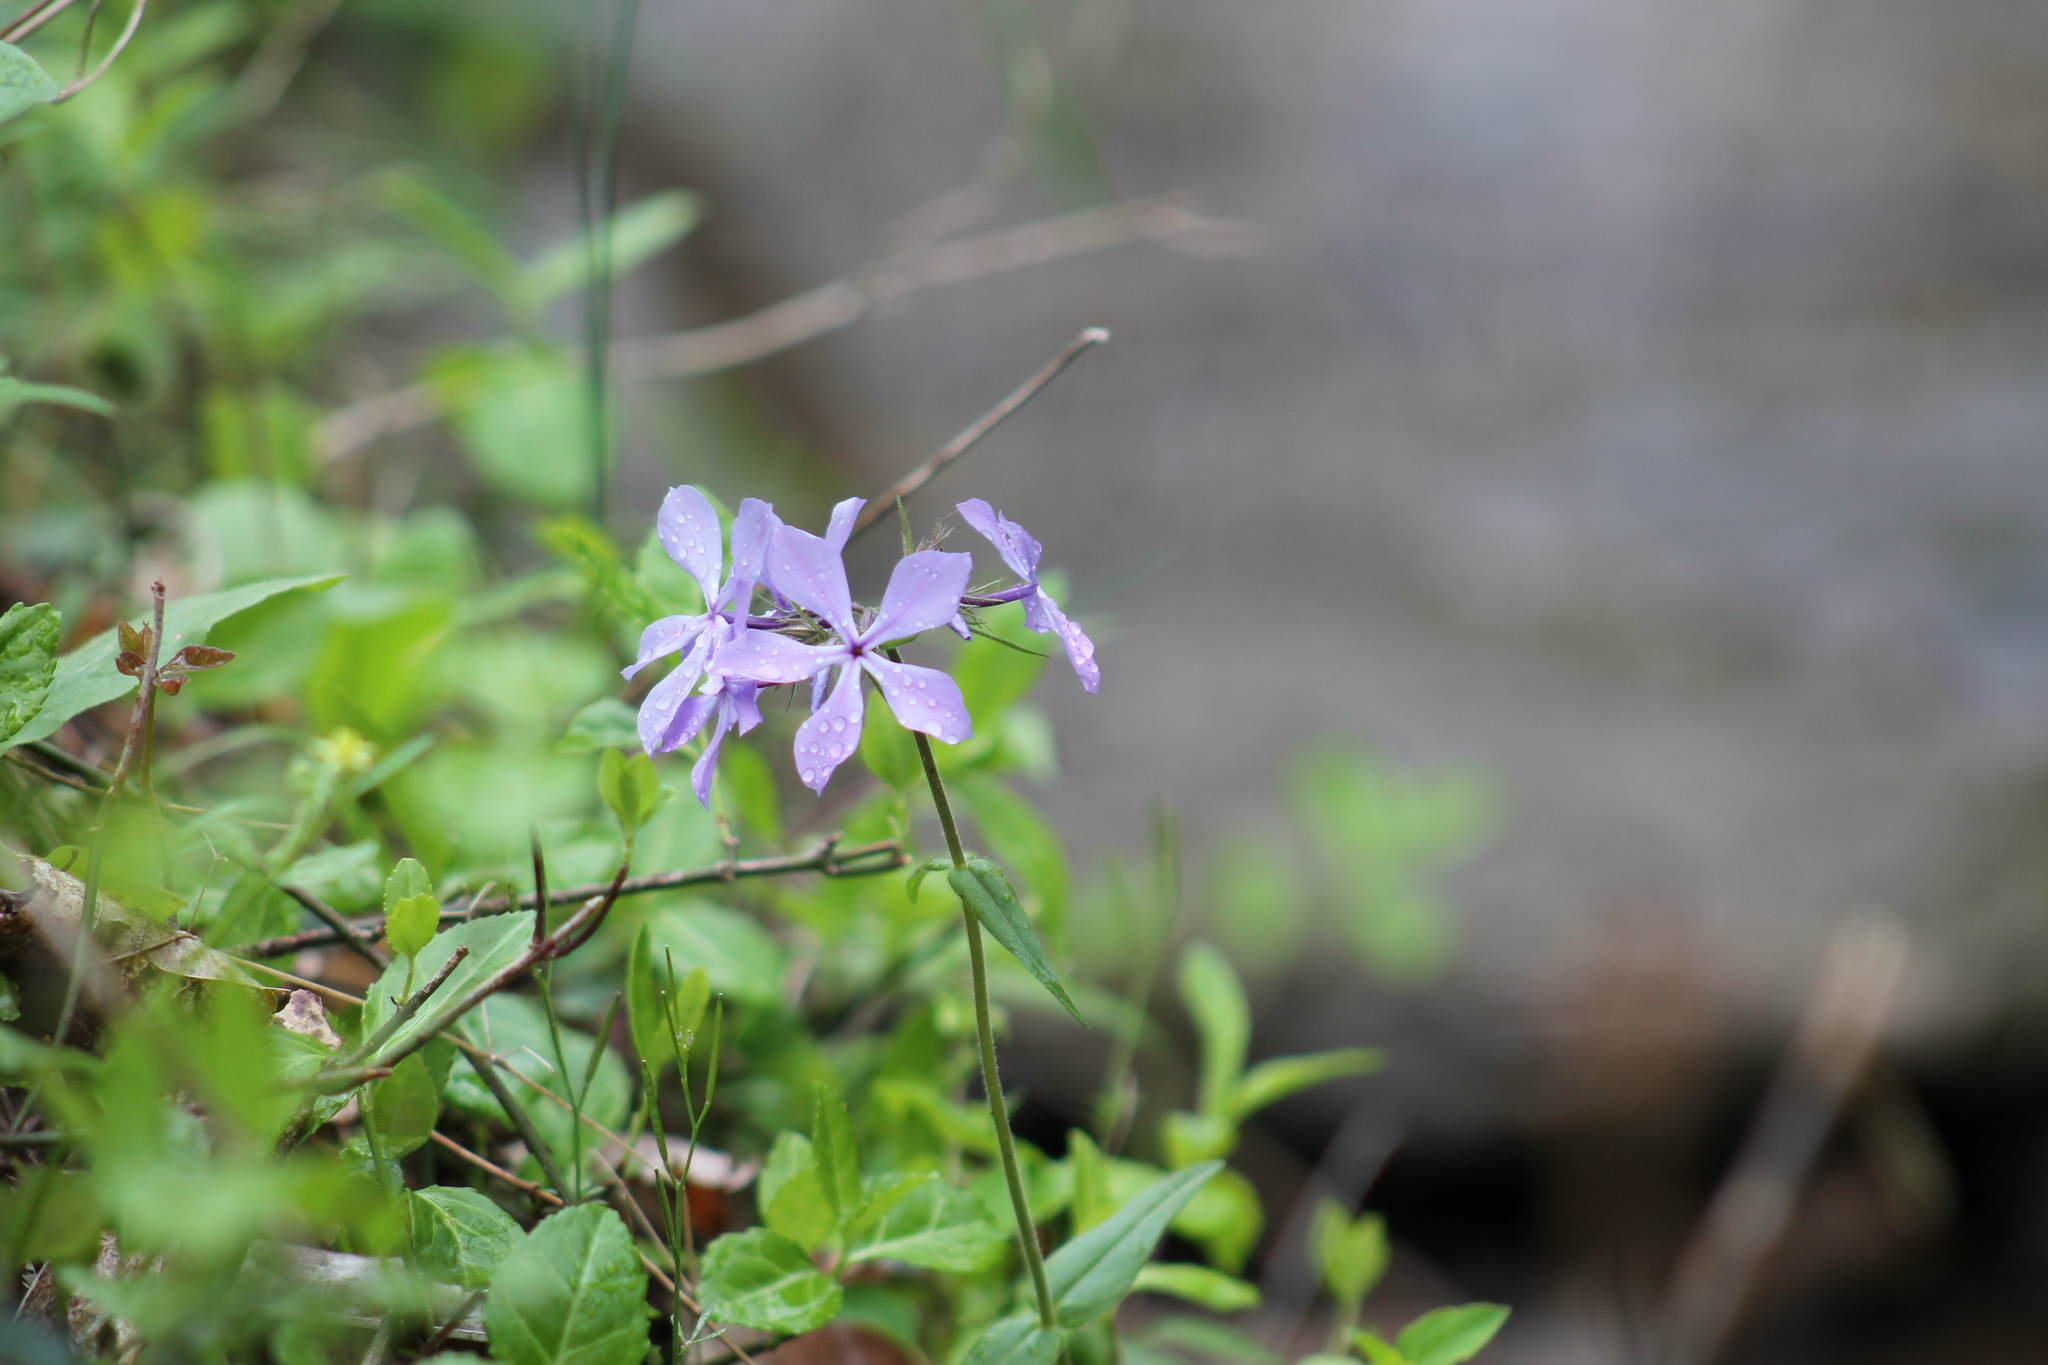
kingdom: Plantae
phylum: Tracheophyta
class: Magnoliopsida
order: Ericales
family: Polemoniaceae
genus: Phlox
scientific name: Phlox divaricata
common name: Blue phlox
